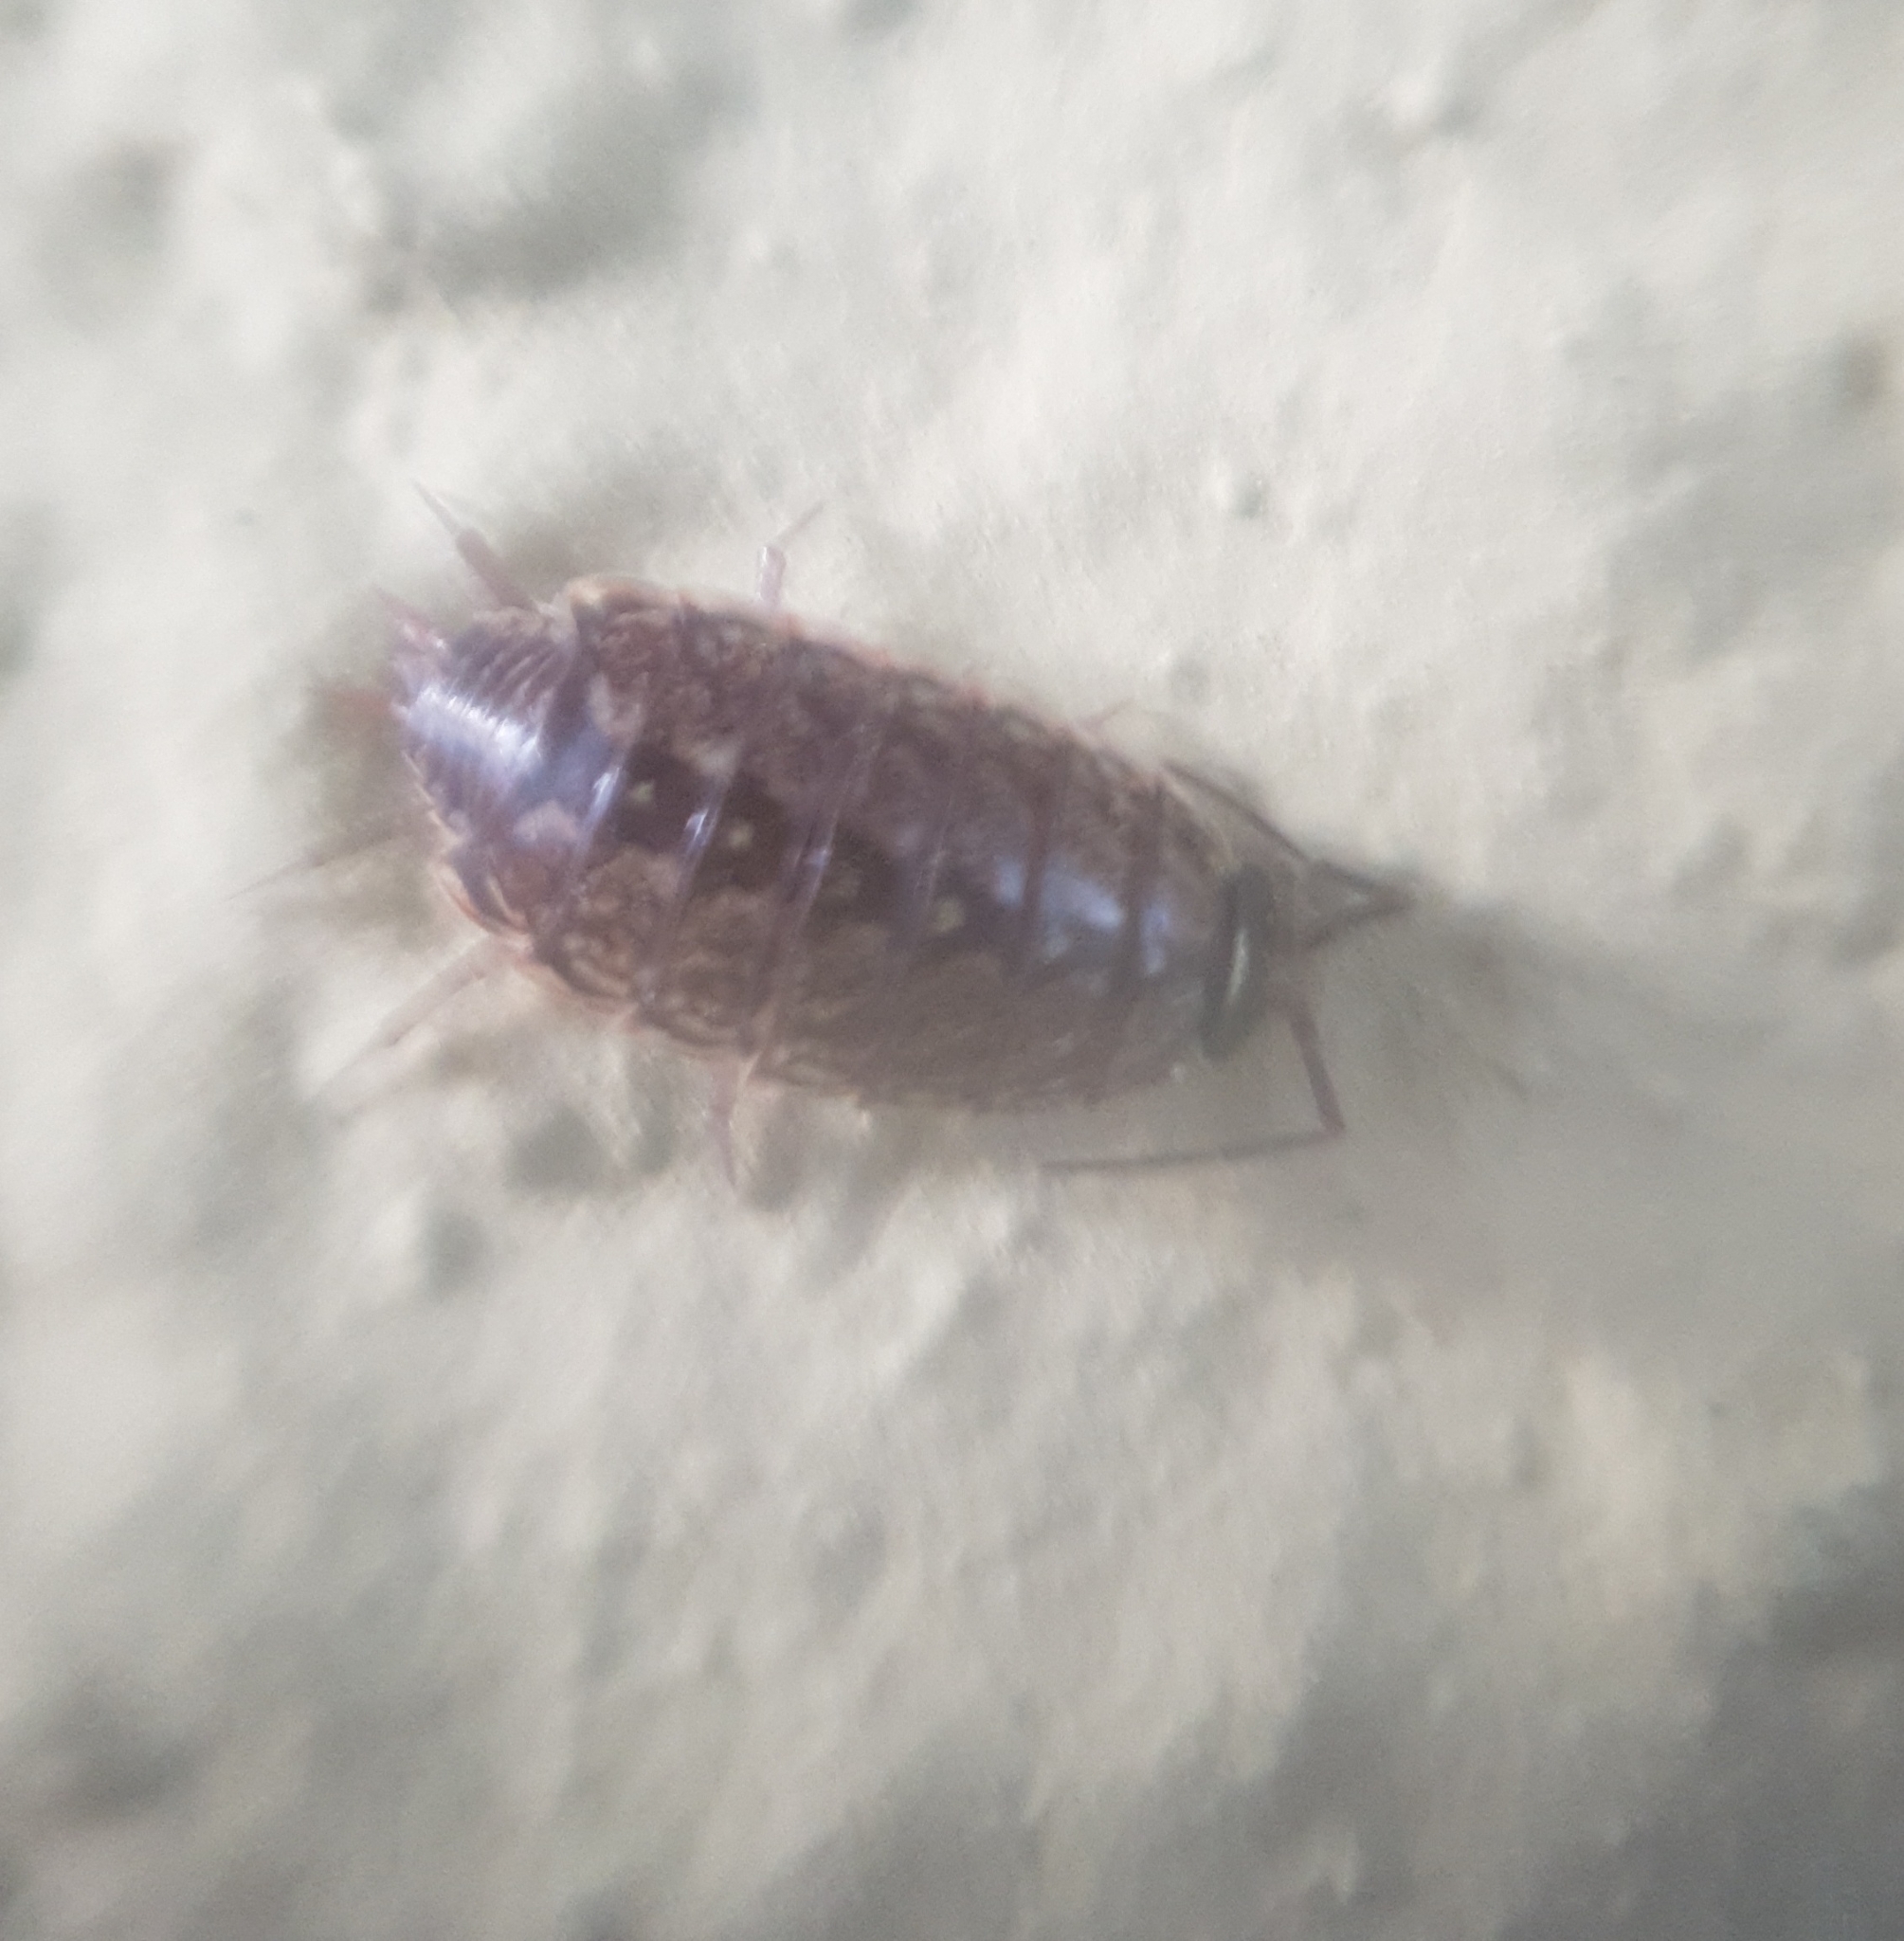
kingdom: Animalia
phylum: Arthropoda
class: Malacostraca
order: Isopoda
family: Philosciidae
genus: Philoscia
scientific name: Philoscia muscorum
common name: Common striped woodlouse
